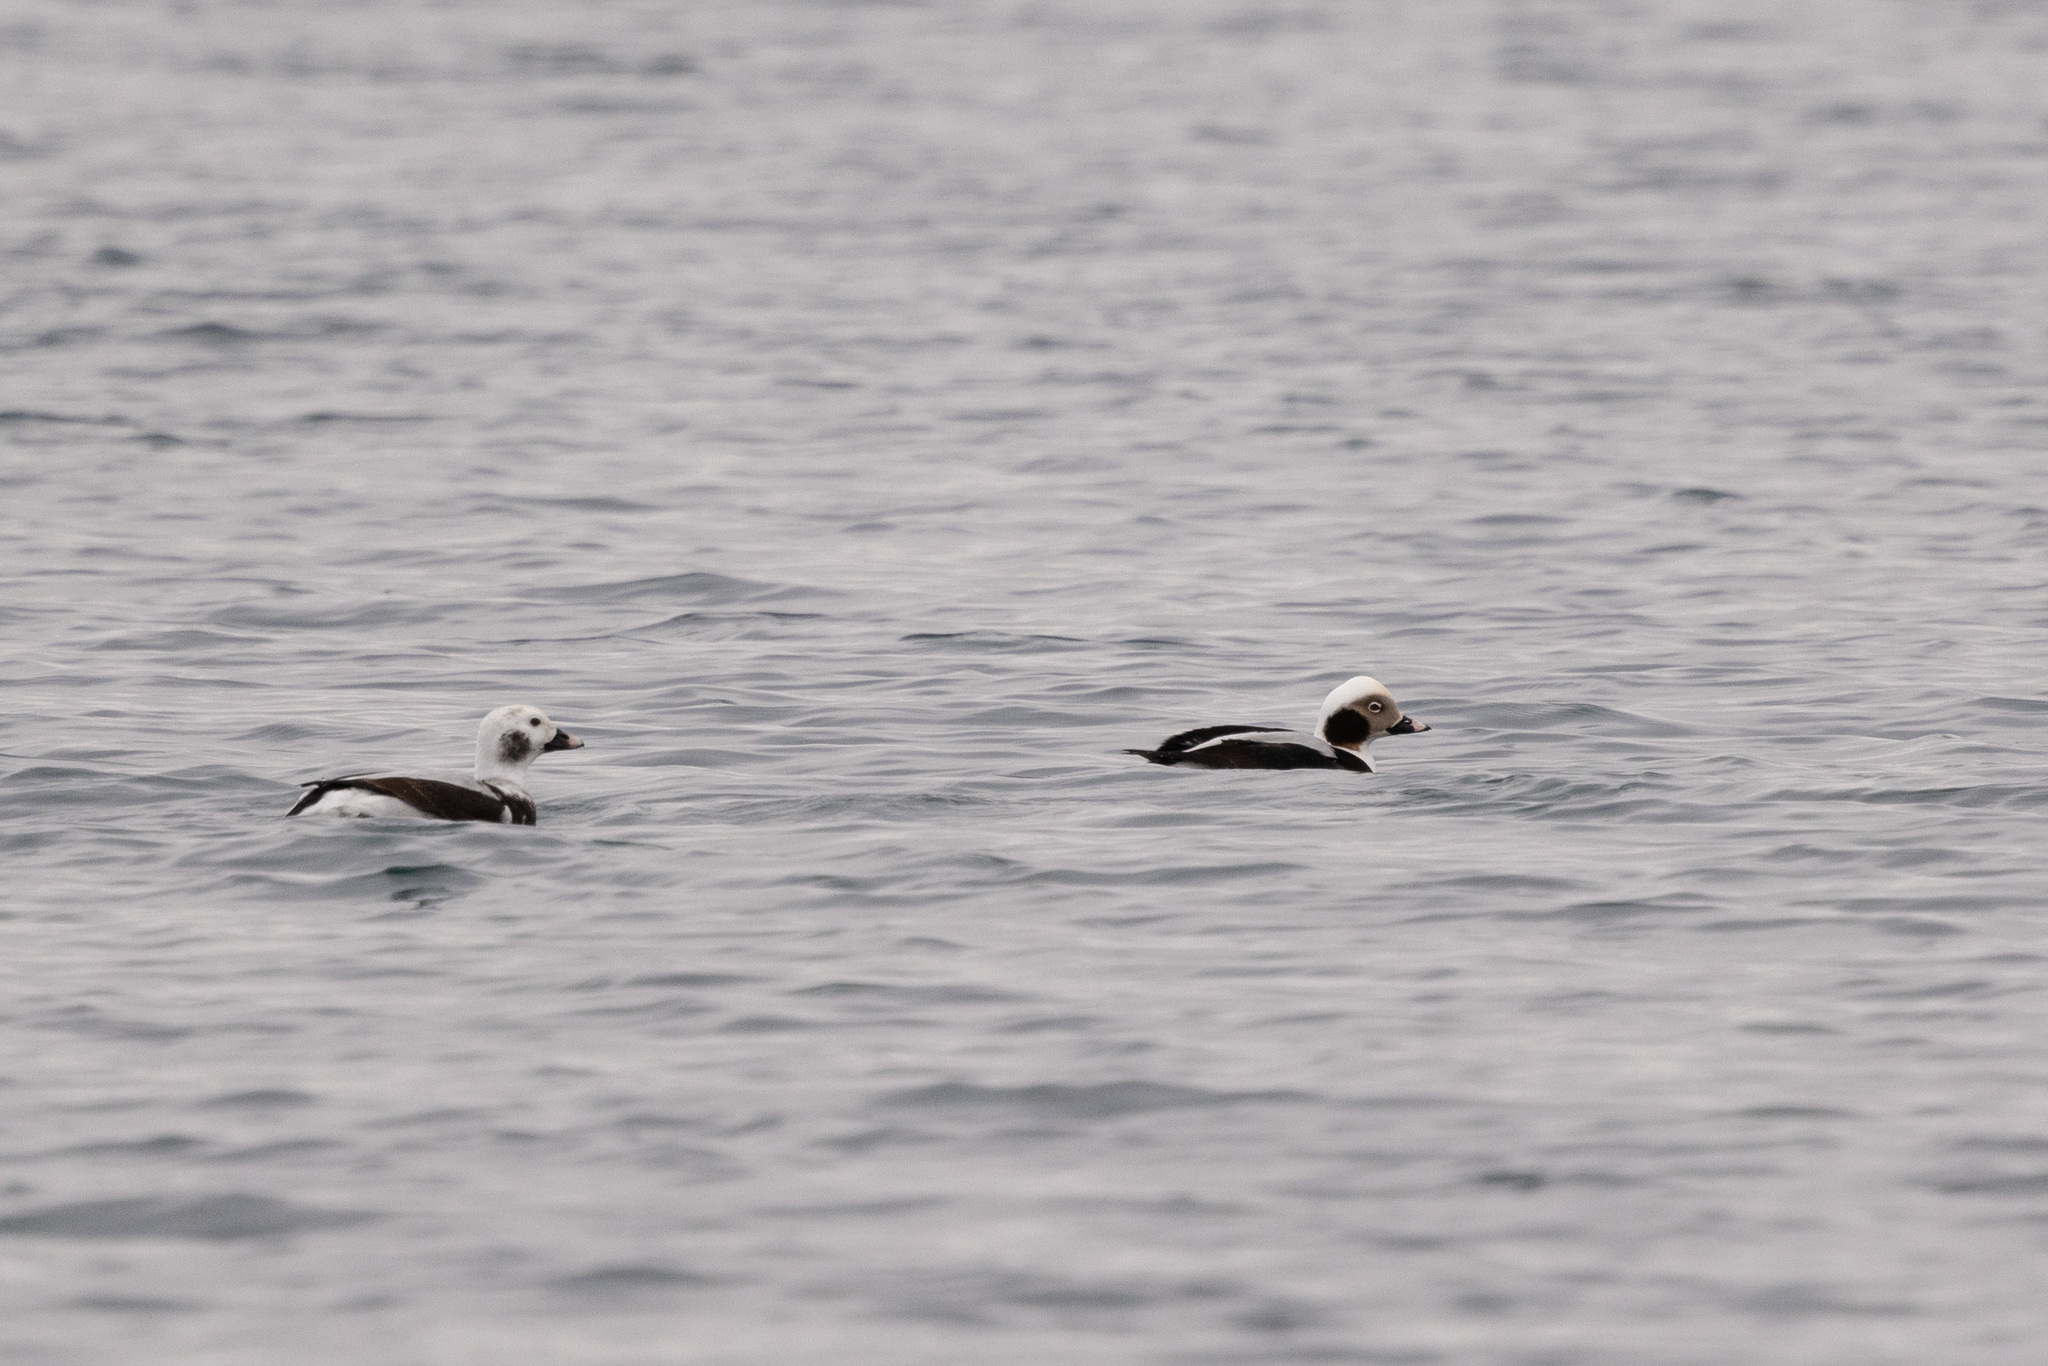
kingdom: Animalia
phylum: Chordata
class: Aves
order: Anseriformes
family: Anatidae
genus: Clangula
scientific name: Clangula hyemalis
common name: Long-tailed duck
